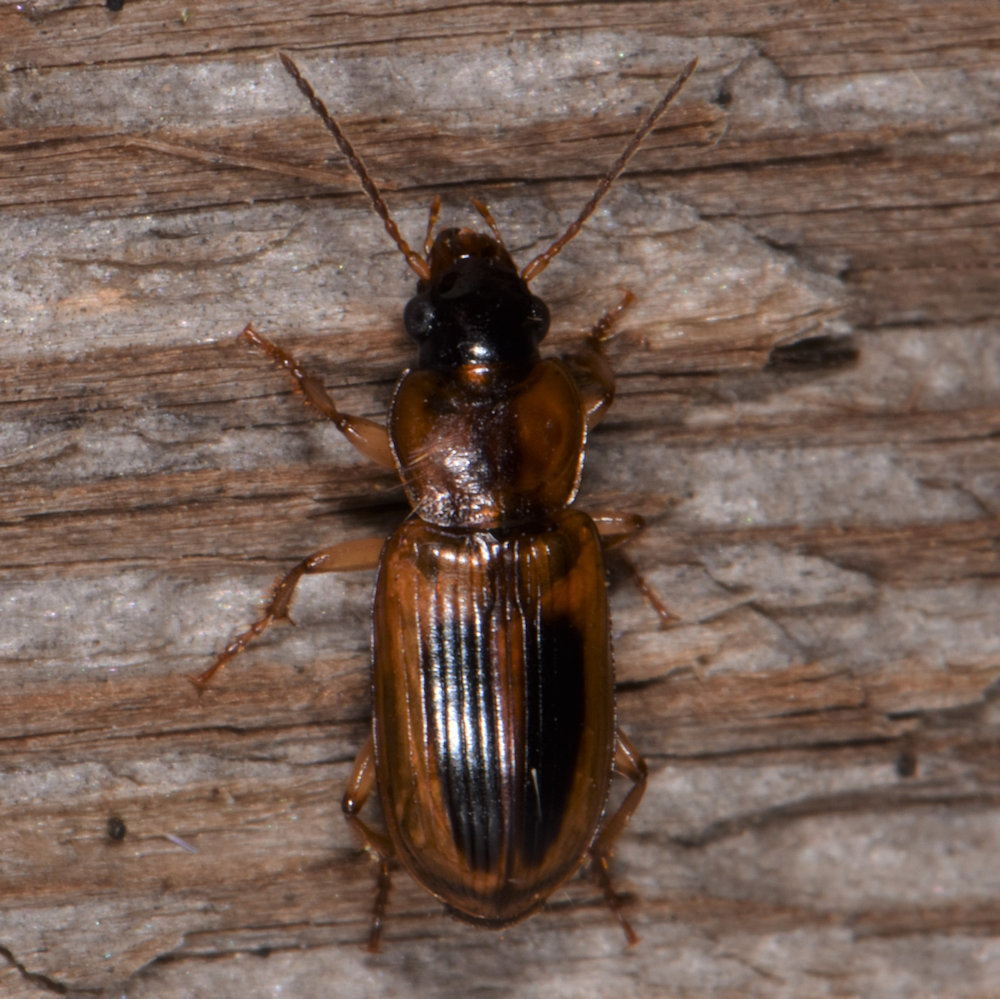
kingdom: Animalia
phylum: Arthropoda
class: Insecta
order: Coleoptera
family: Carabidae
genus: Stenolophus
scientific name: Stenolophus comma
